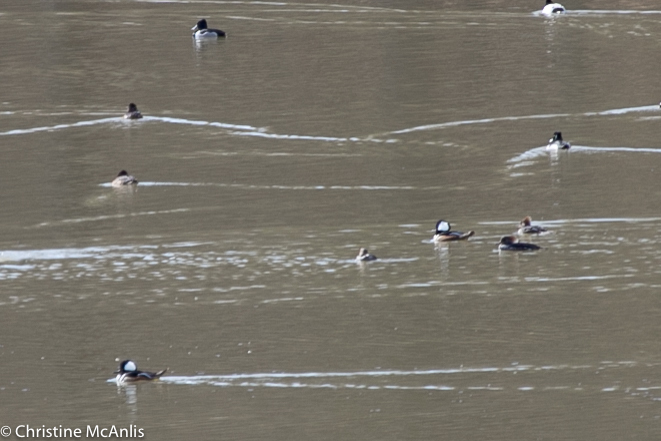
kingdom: Animalia
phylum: Chordata
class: Aves
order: Anseriformes
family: Anatidae
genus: Lophodytes
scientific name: Lophodytes cucullatus
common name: Hooded merganser
